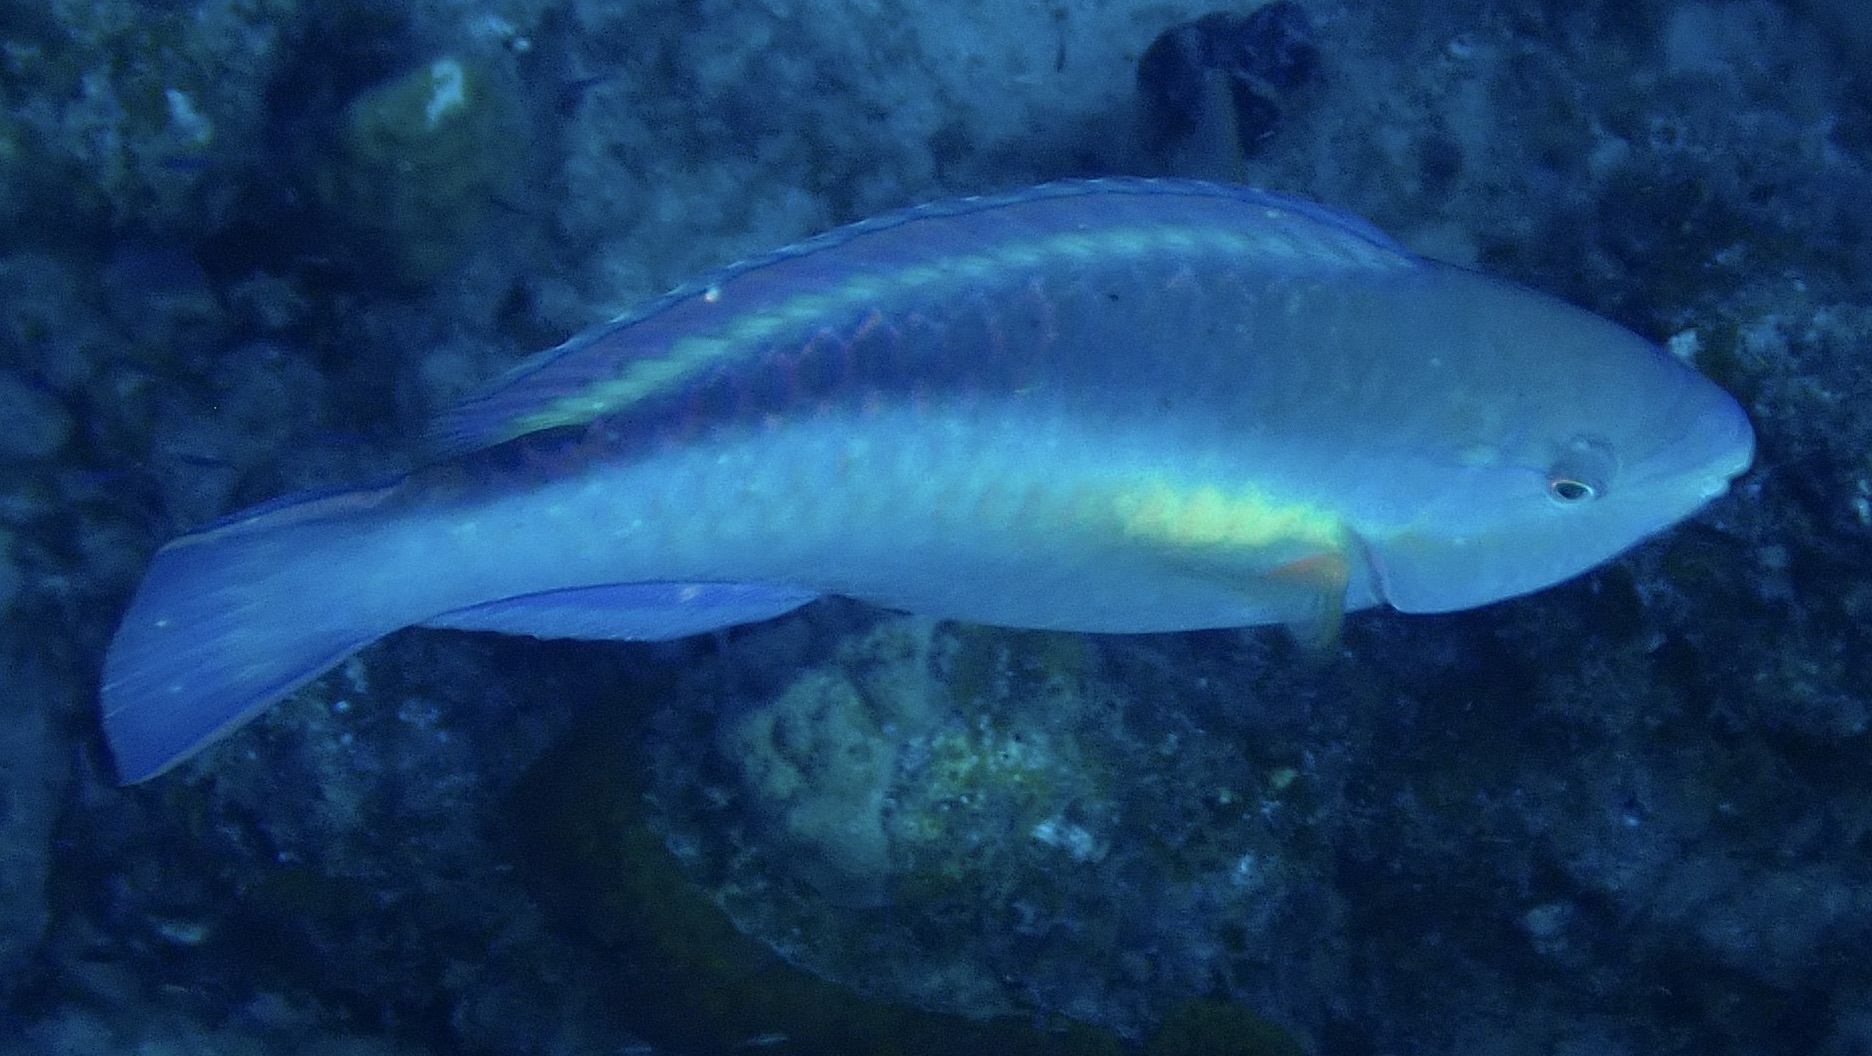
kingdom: Animalia
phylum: Chordata
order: Perciformes
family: Scaridae
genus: Scarus
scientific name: Scarus taeniopterus
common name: Princess parrotfish
